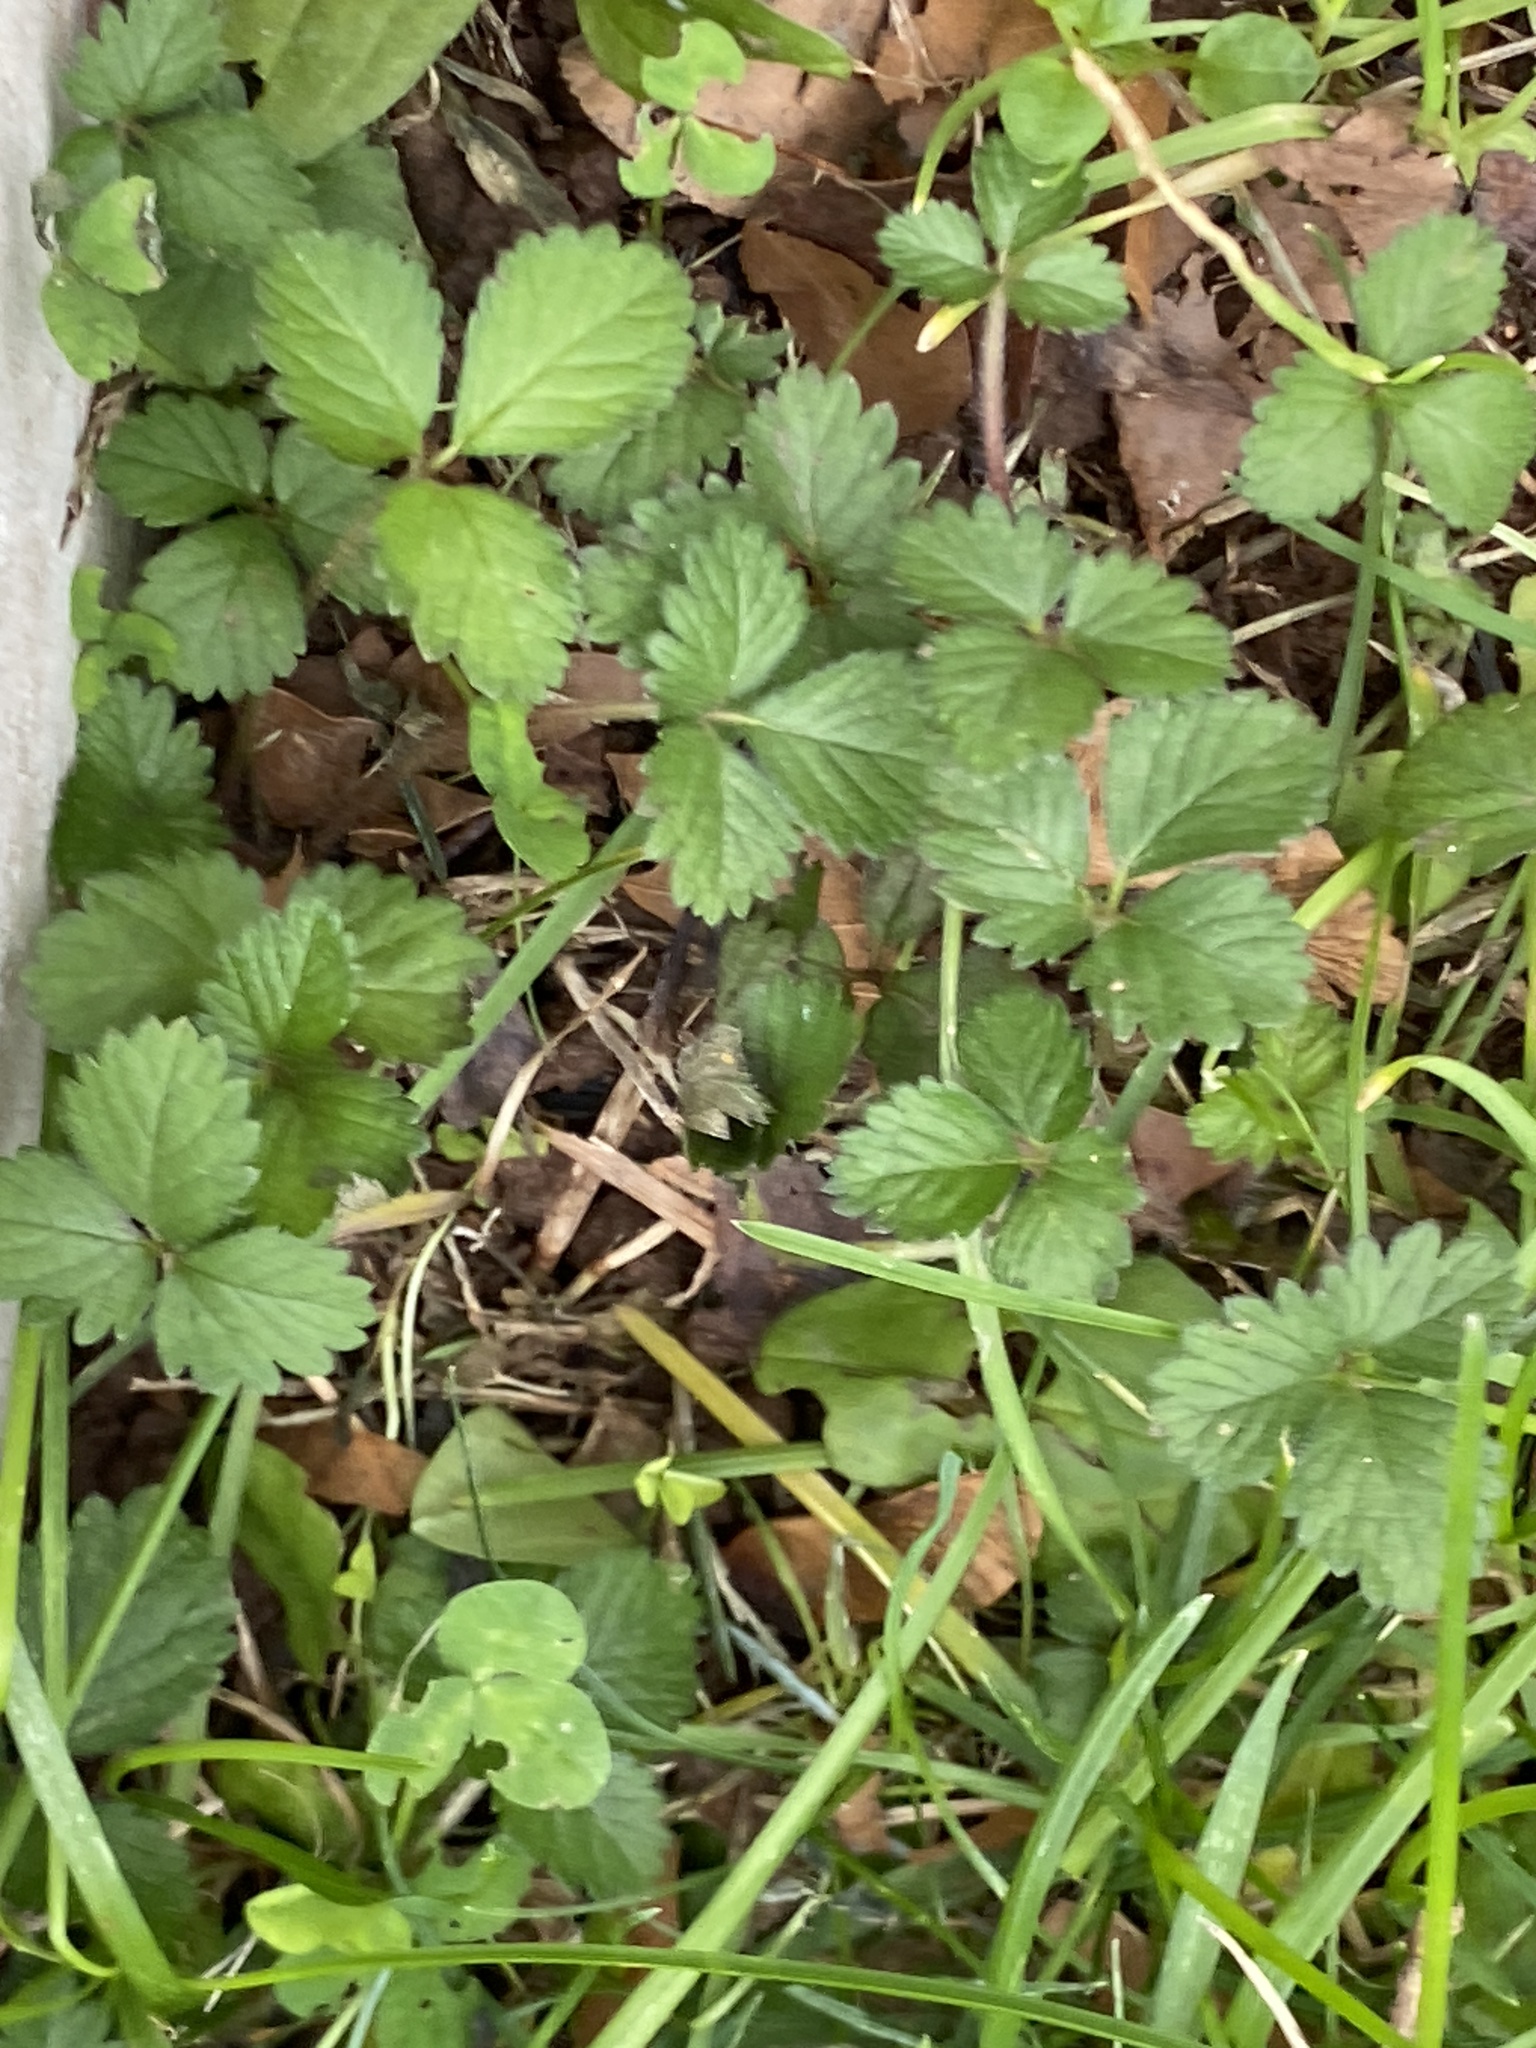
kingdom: Plantae
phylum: Tracheophyta
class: Magnoliopsida
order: Rosales
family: Rosaceae
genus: Potentilla
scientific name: Potentilla indica
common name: Yellow-flowered strawberry
